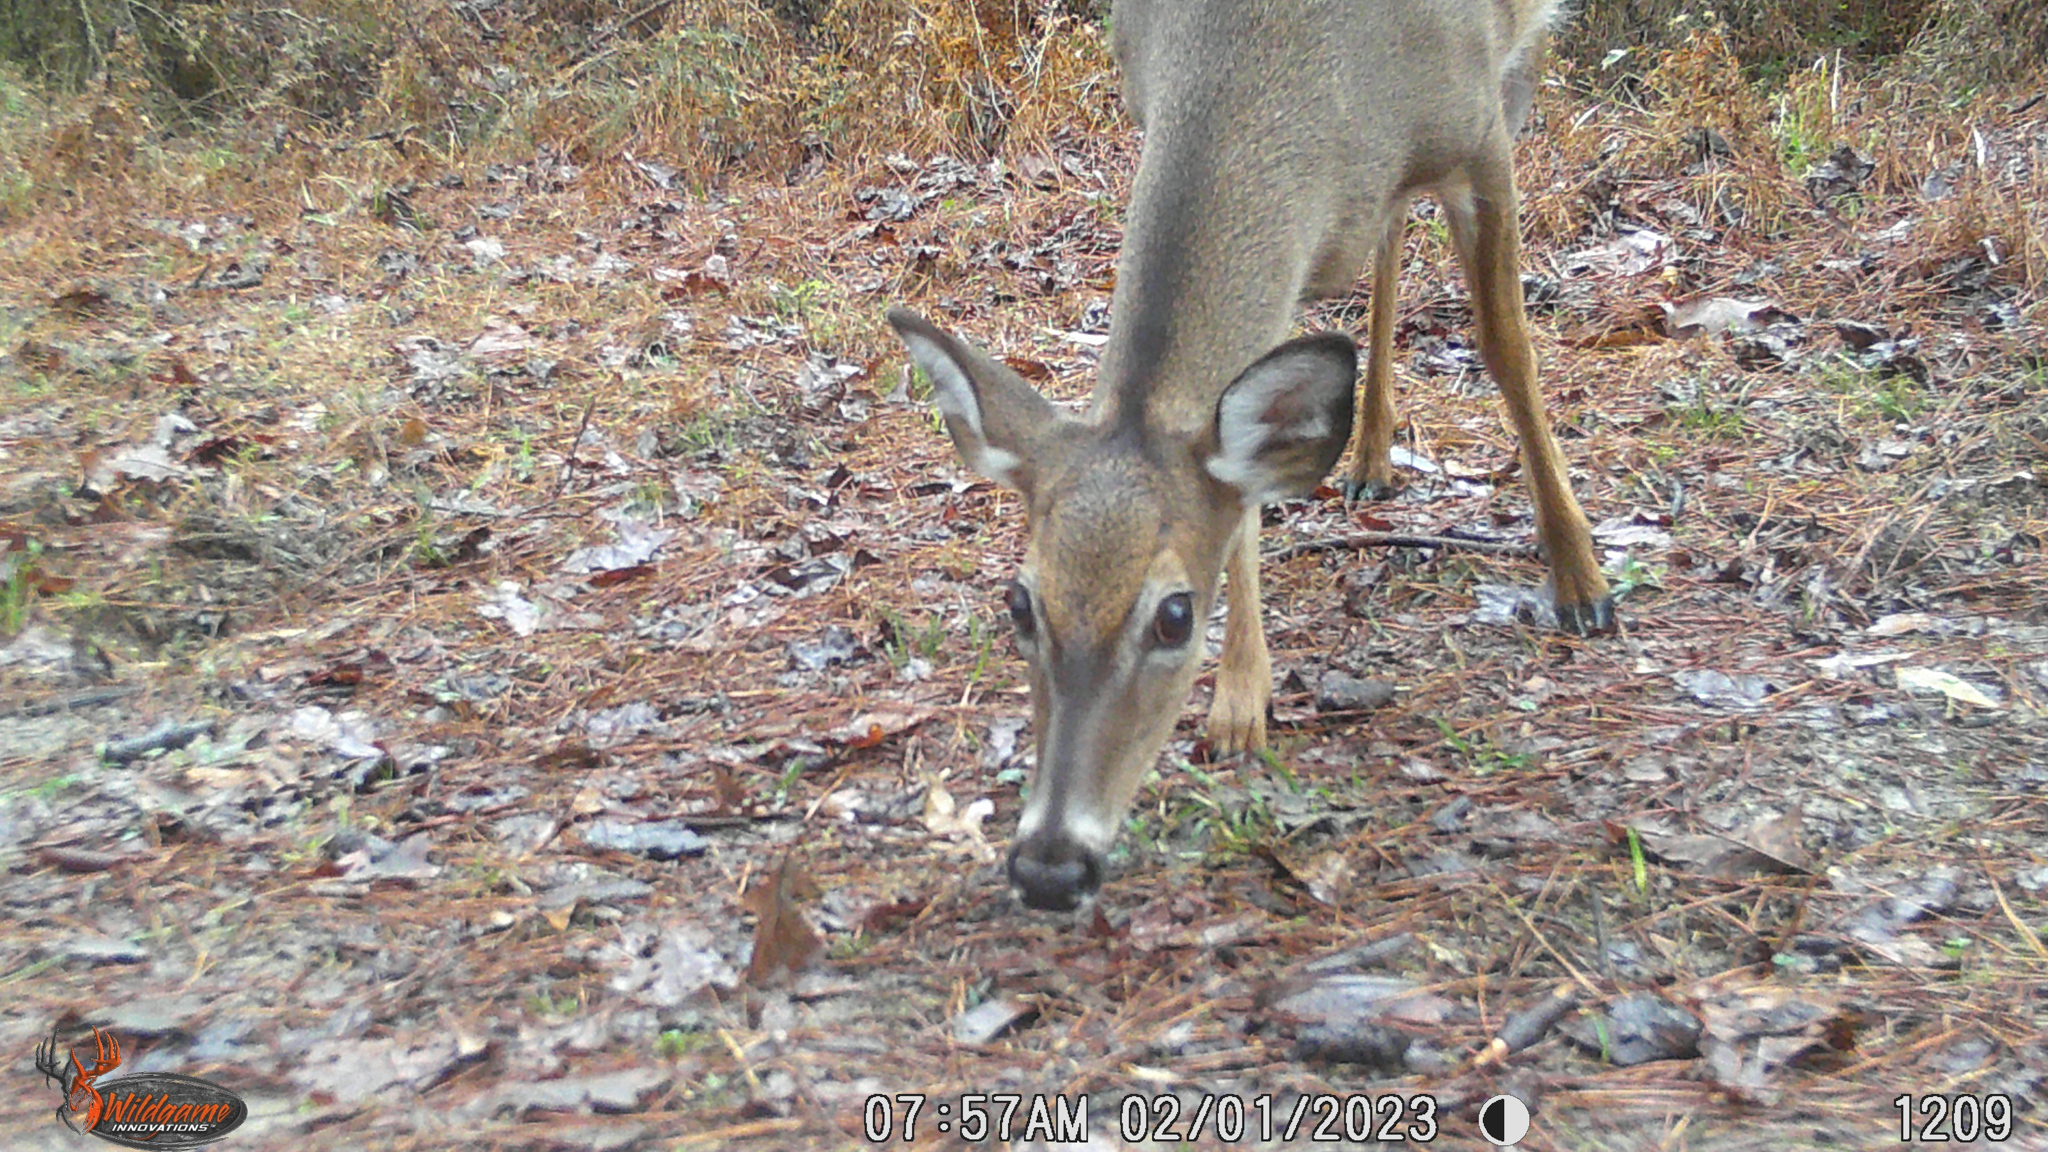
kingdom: Animalia
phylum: Chordata
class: Mammalia
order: Artiodactyla
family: Cervidae
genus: Odocoileus
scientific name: Odocoileus virginianus
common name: White-tailed deer
